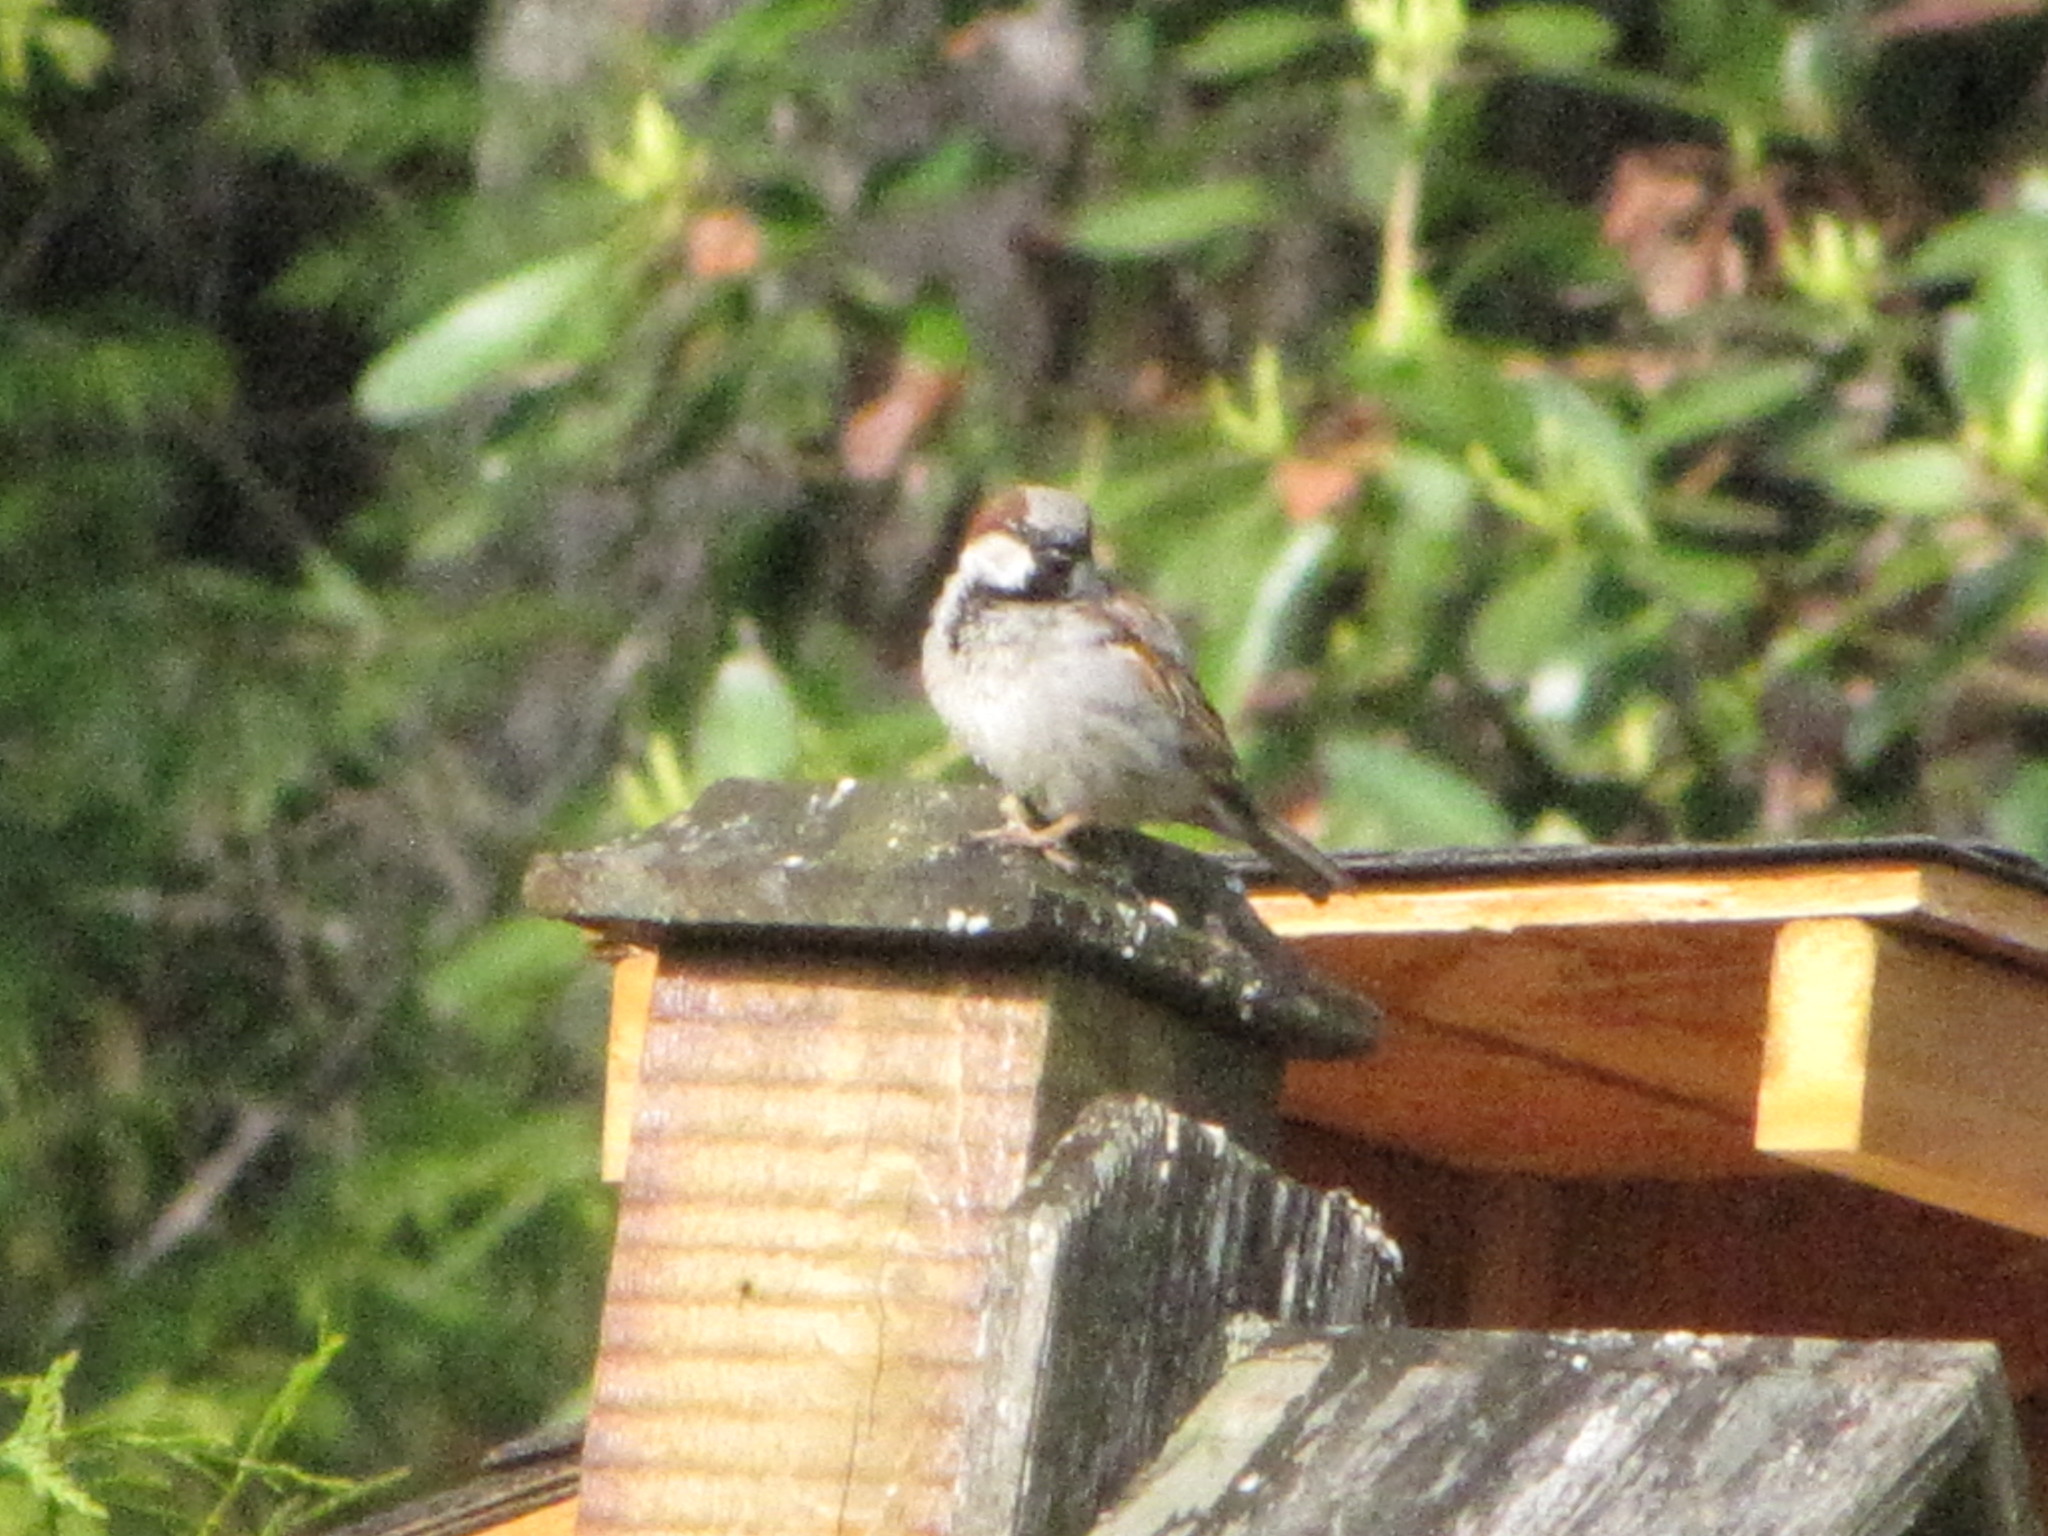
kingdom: Animalia
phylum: Chordata
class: Aves
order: Passeriformes
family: Passeridae
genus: Passer
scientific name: Passer domesticus
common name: House sparrow
